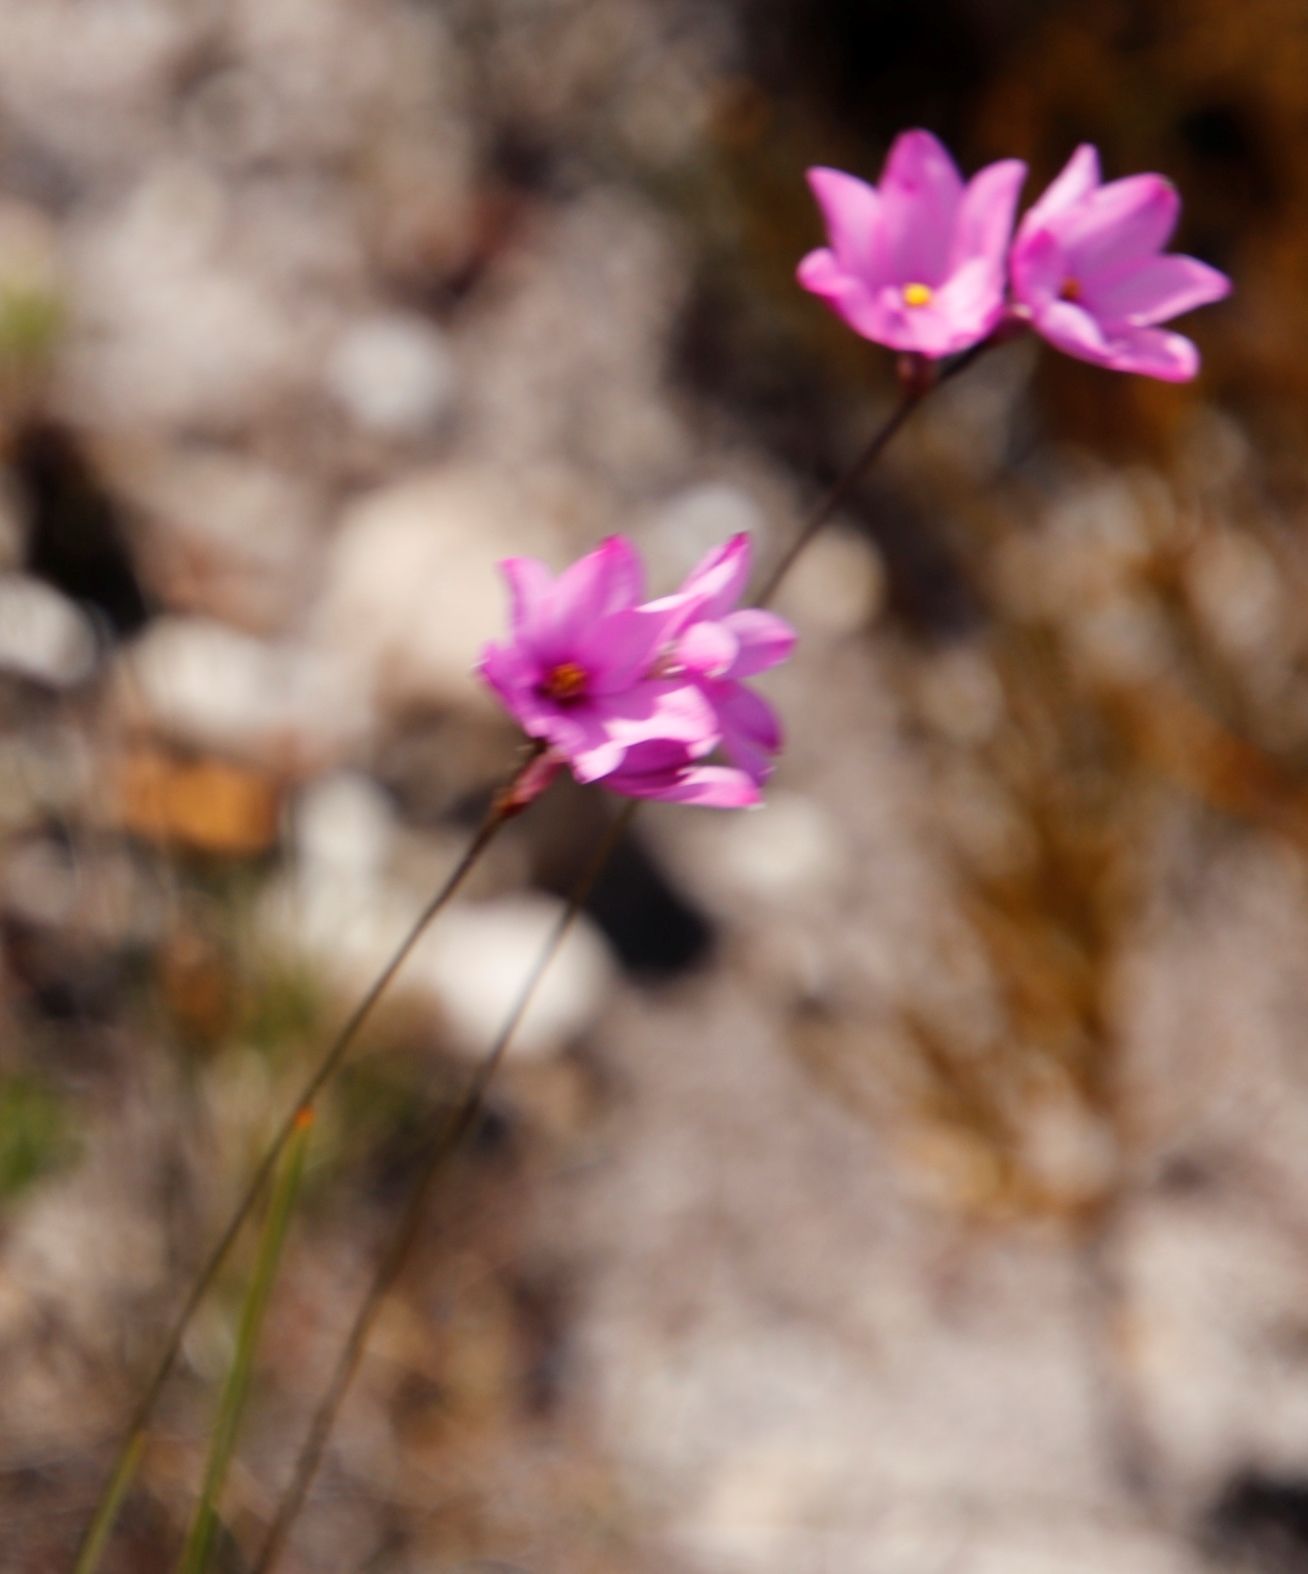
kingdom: Plantae
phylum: Tracheophyta
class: Liliopsida
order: Asparagales
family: Iridaceae
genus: Ixia
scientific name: Ixia minor
